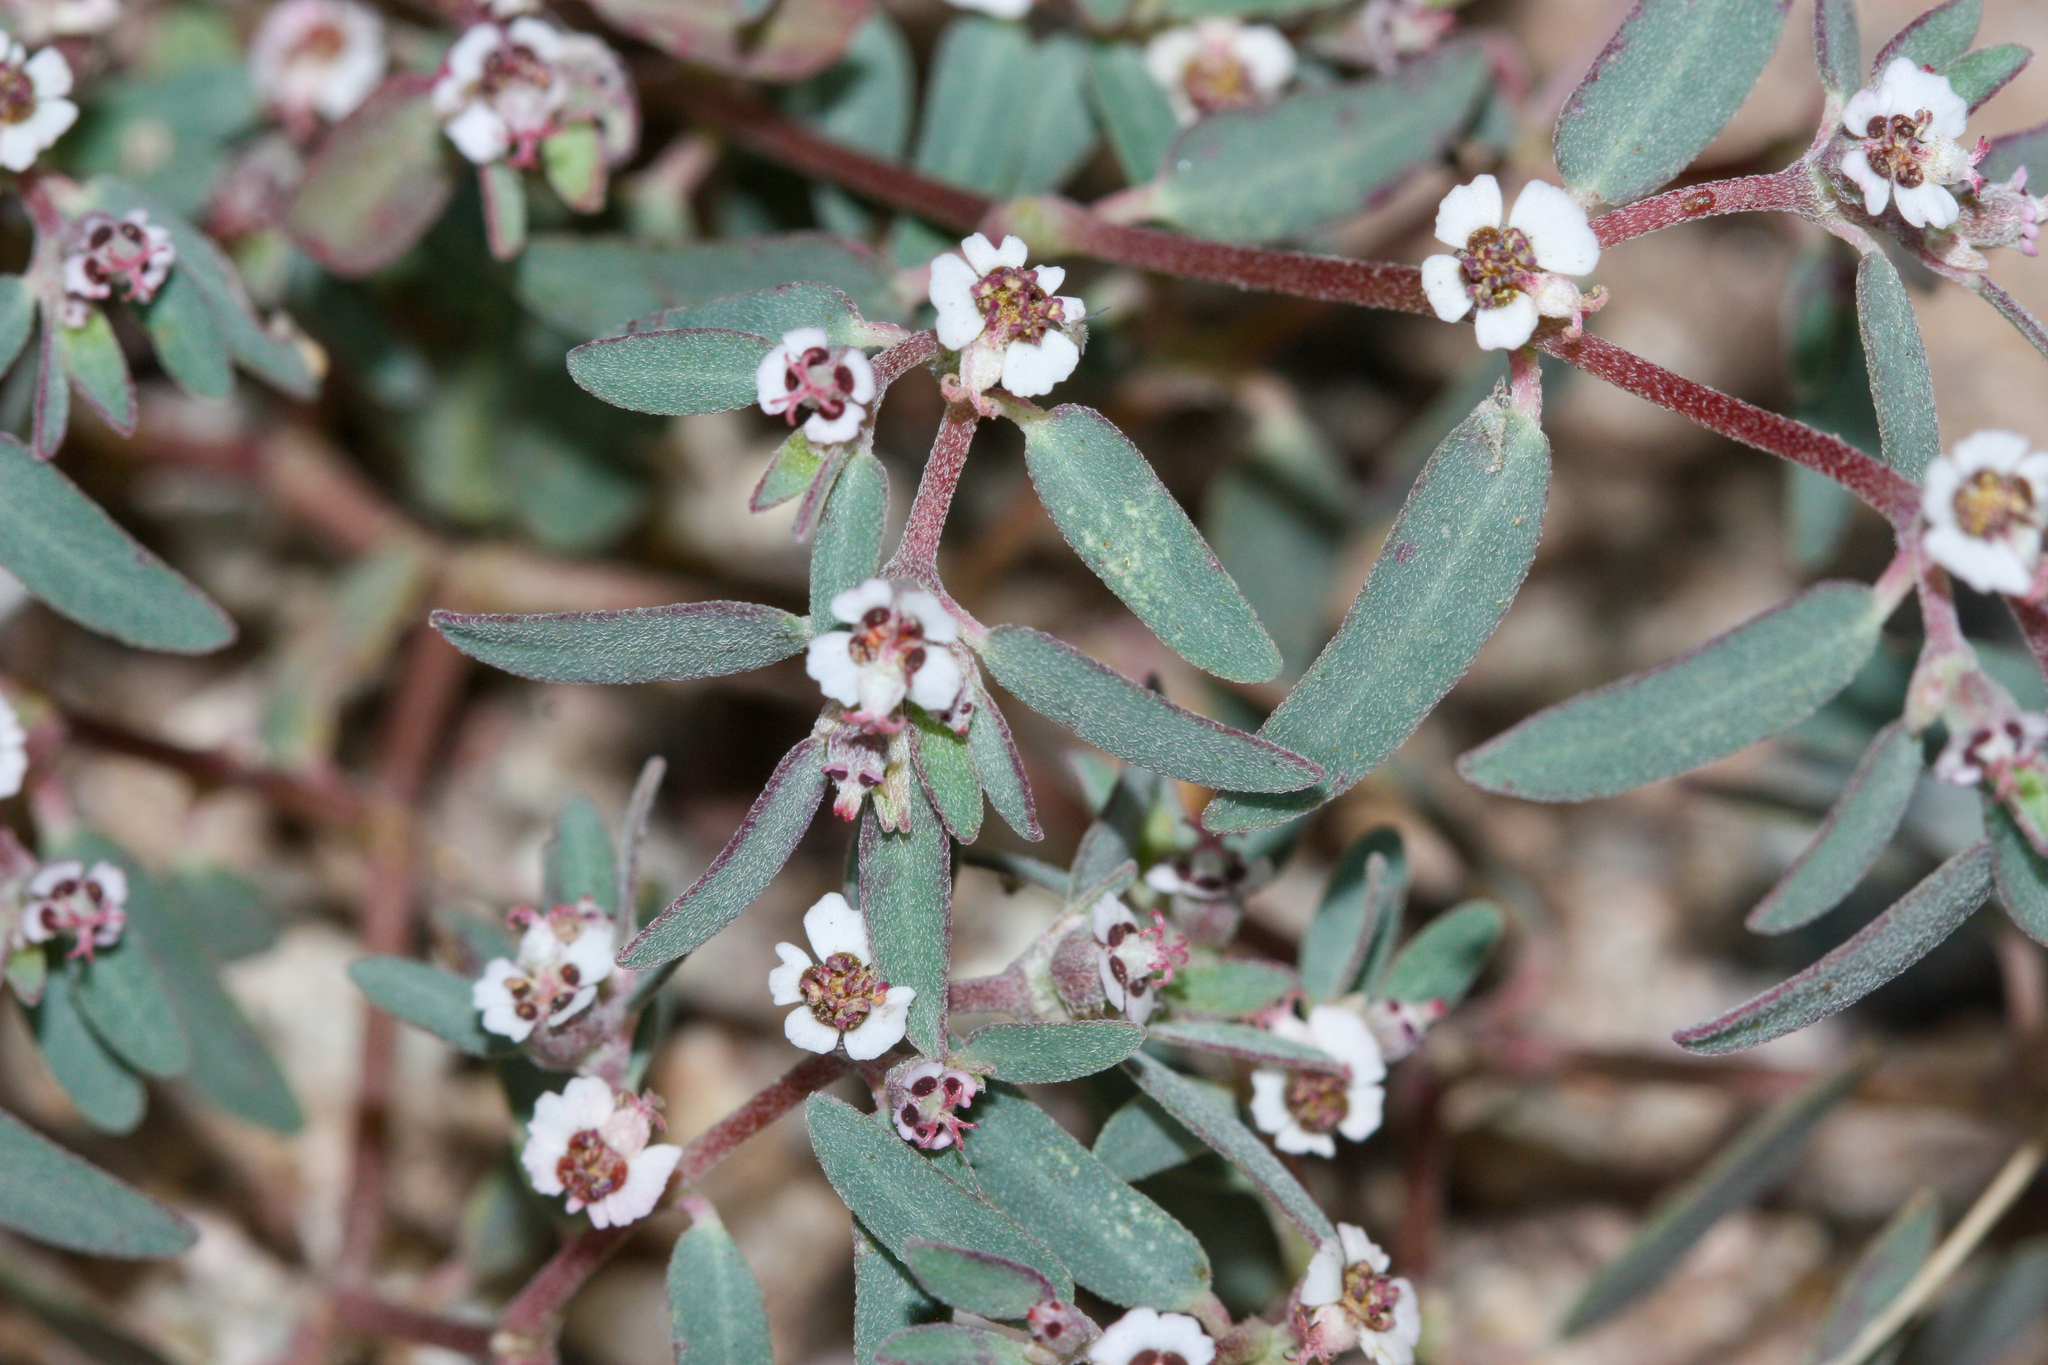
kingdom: Plantae
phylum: Tracheophyta
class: Magnoliopsida
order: Malpighiales
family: Euphorbiaceae
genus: Euphorbia
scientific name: Euphorbia pediculifera
